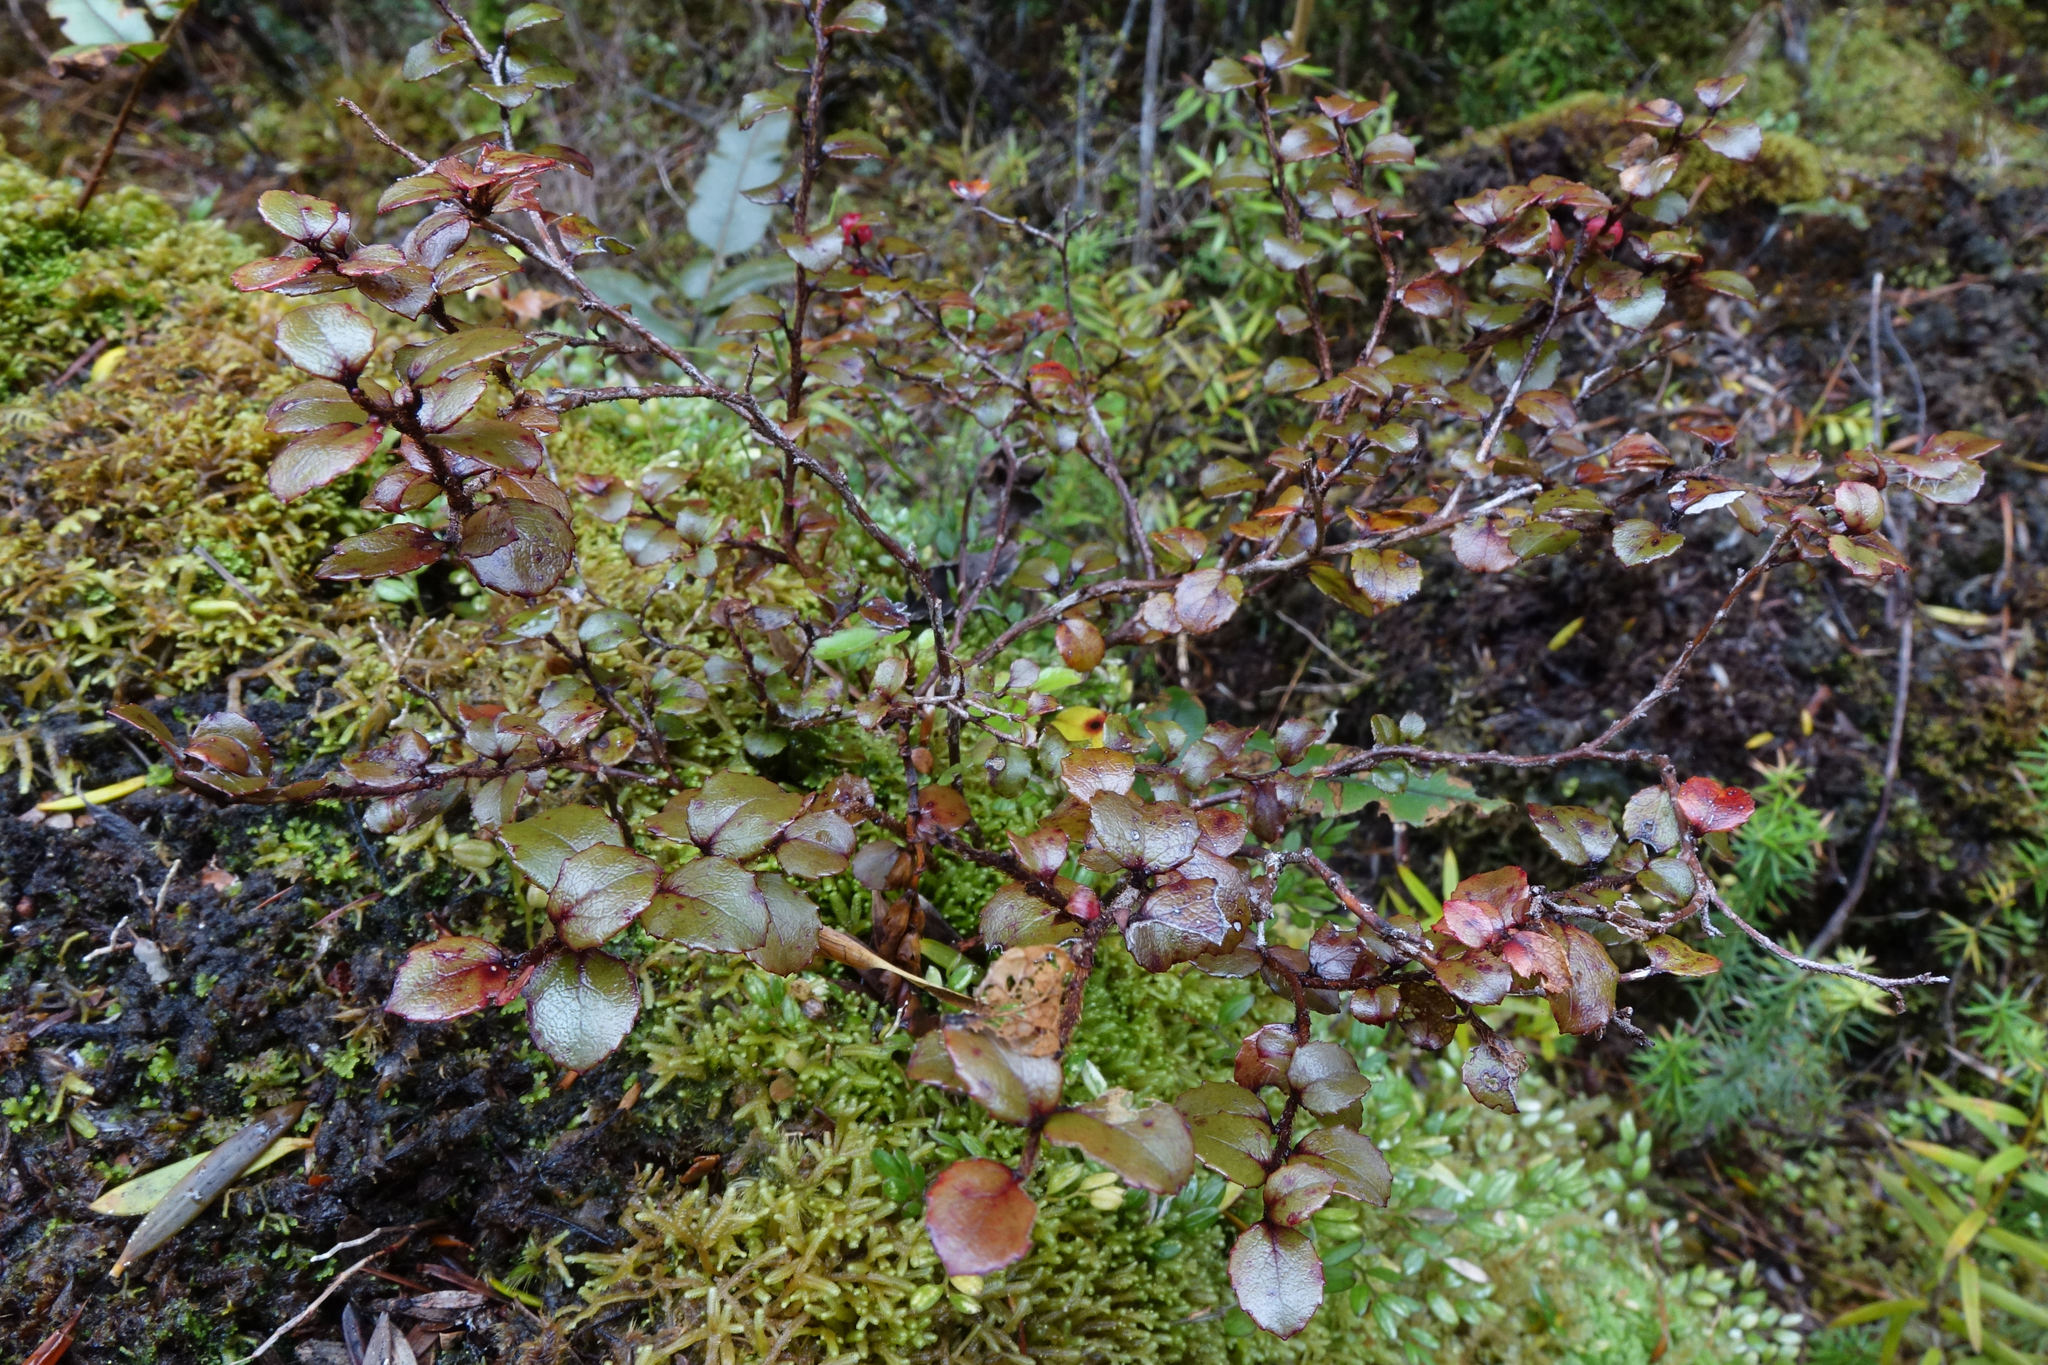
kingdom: Plantae
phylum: Tracheophyta
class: Magnoliopsida
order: Ericales
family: Ericaceae
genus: Gaultheria
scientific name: Gaultheria antipoda
